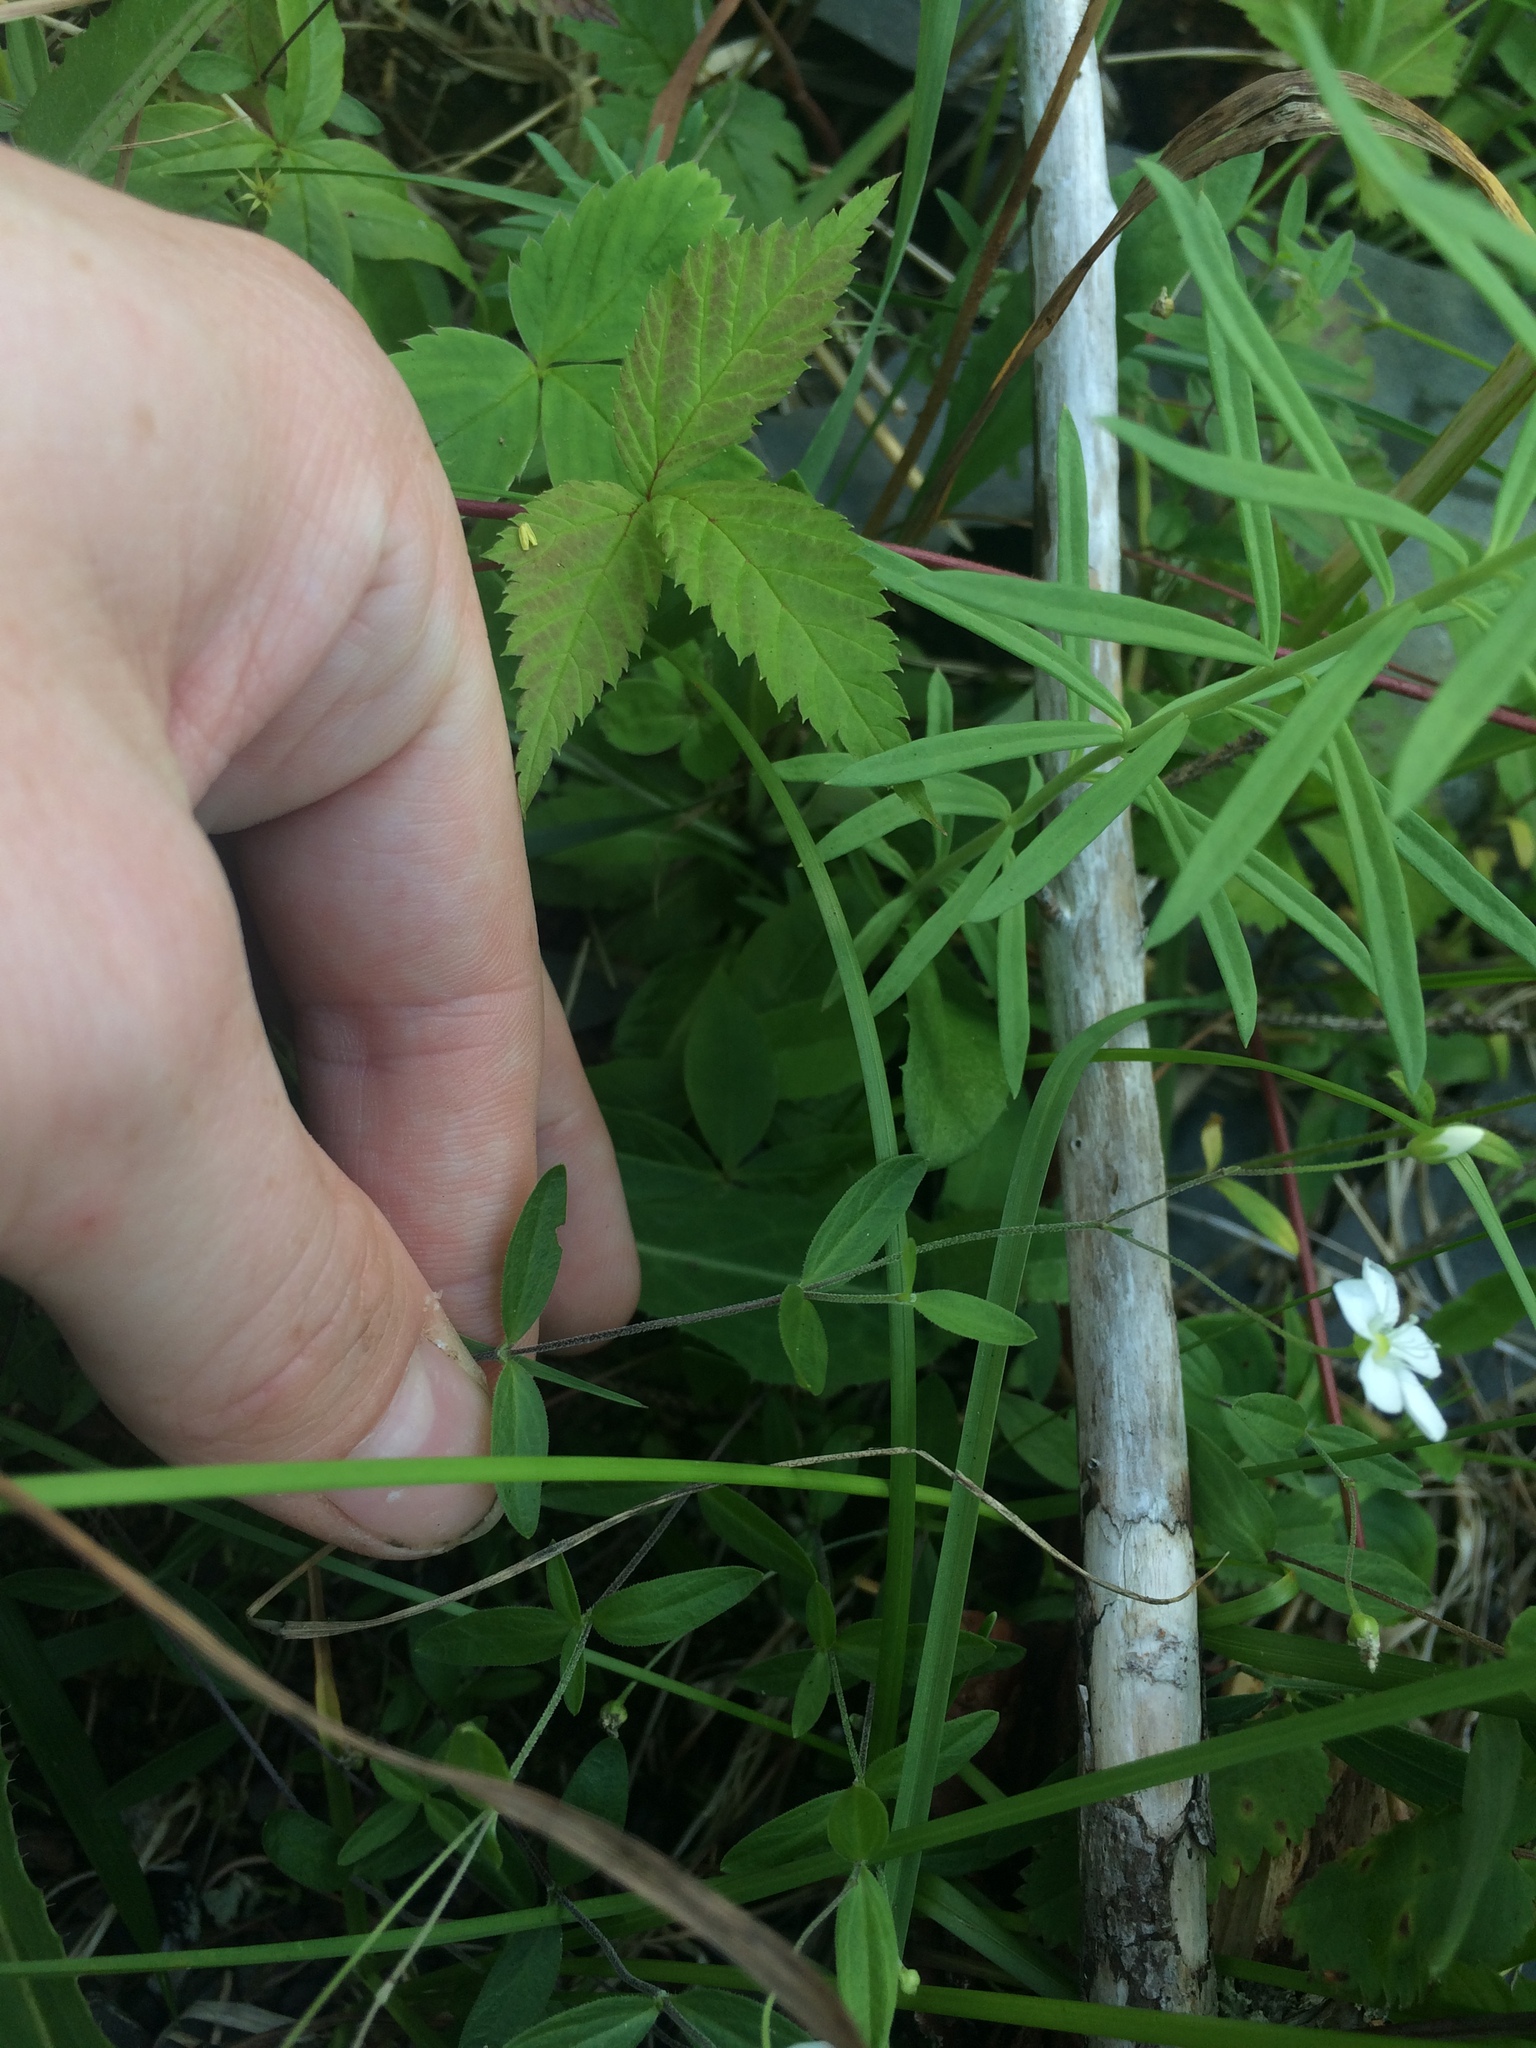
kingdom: Plantae
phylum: Tracheophyta
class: Magnoliopsida
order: Caryophyllales
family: Caryophyllaceae
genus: Moehringia
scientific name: Moehringia lateriflora
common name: Blunt-leaved sandwort
